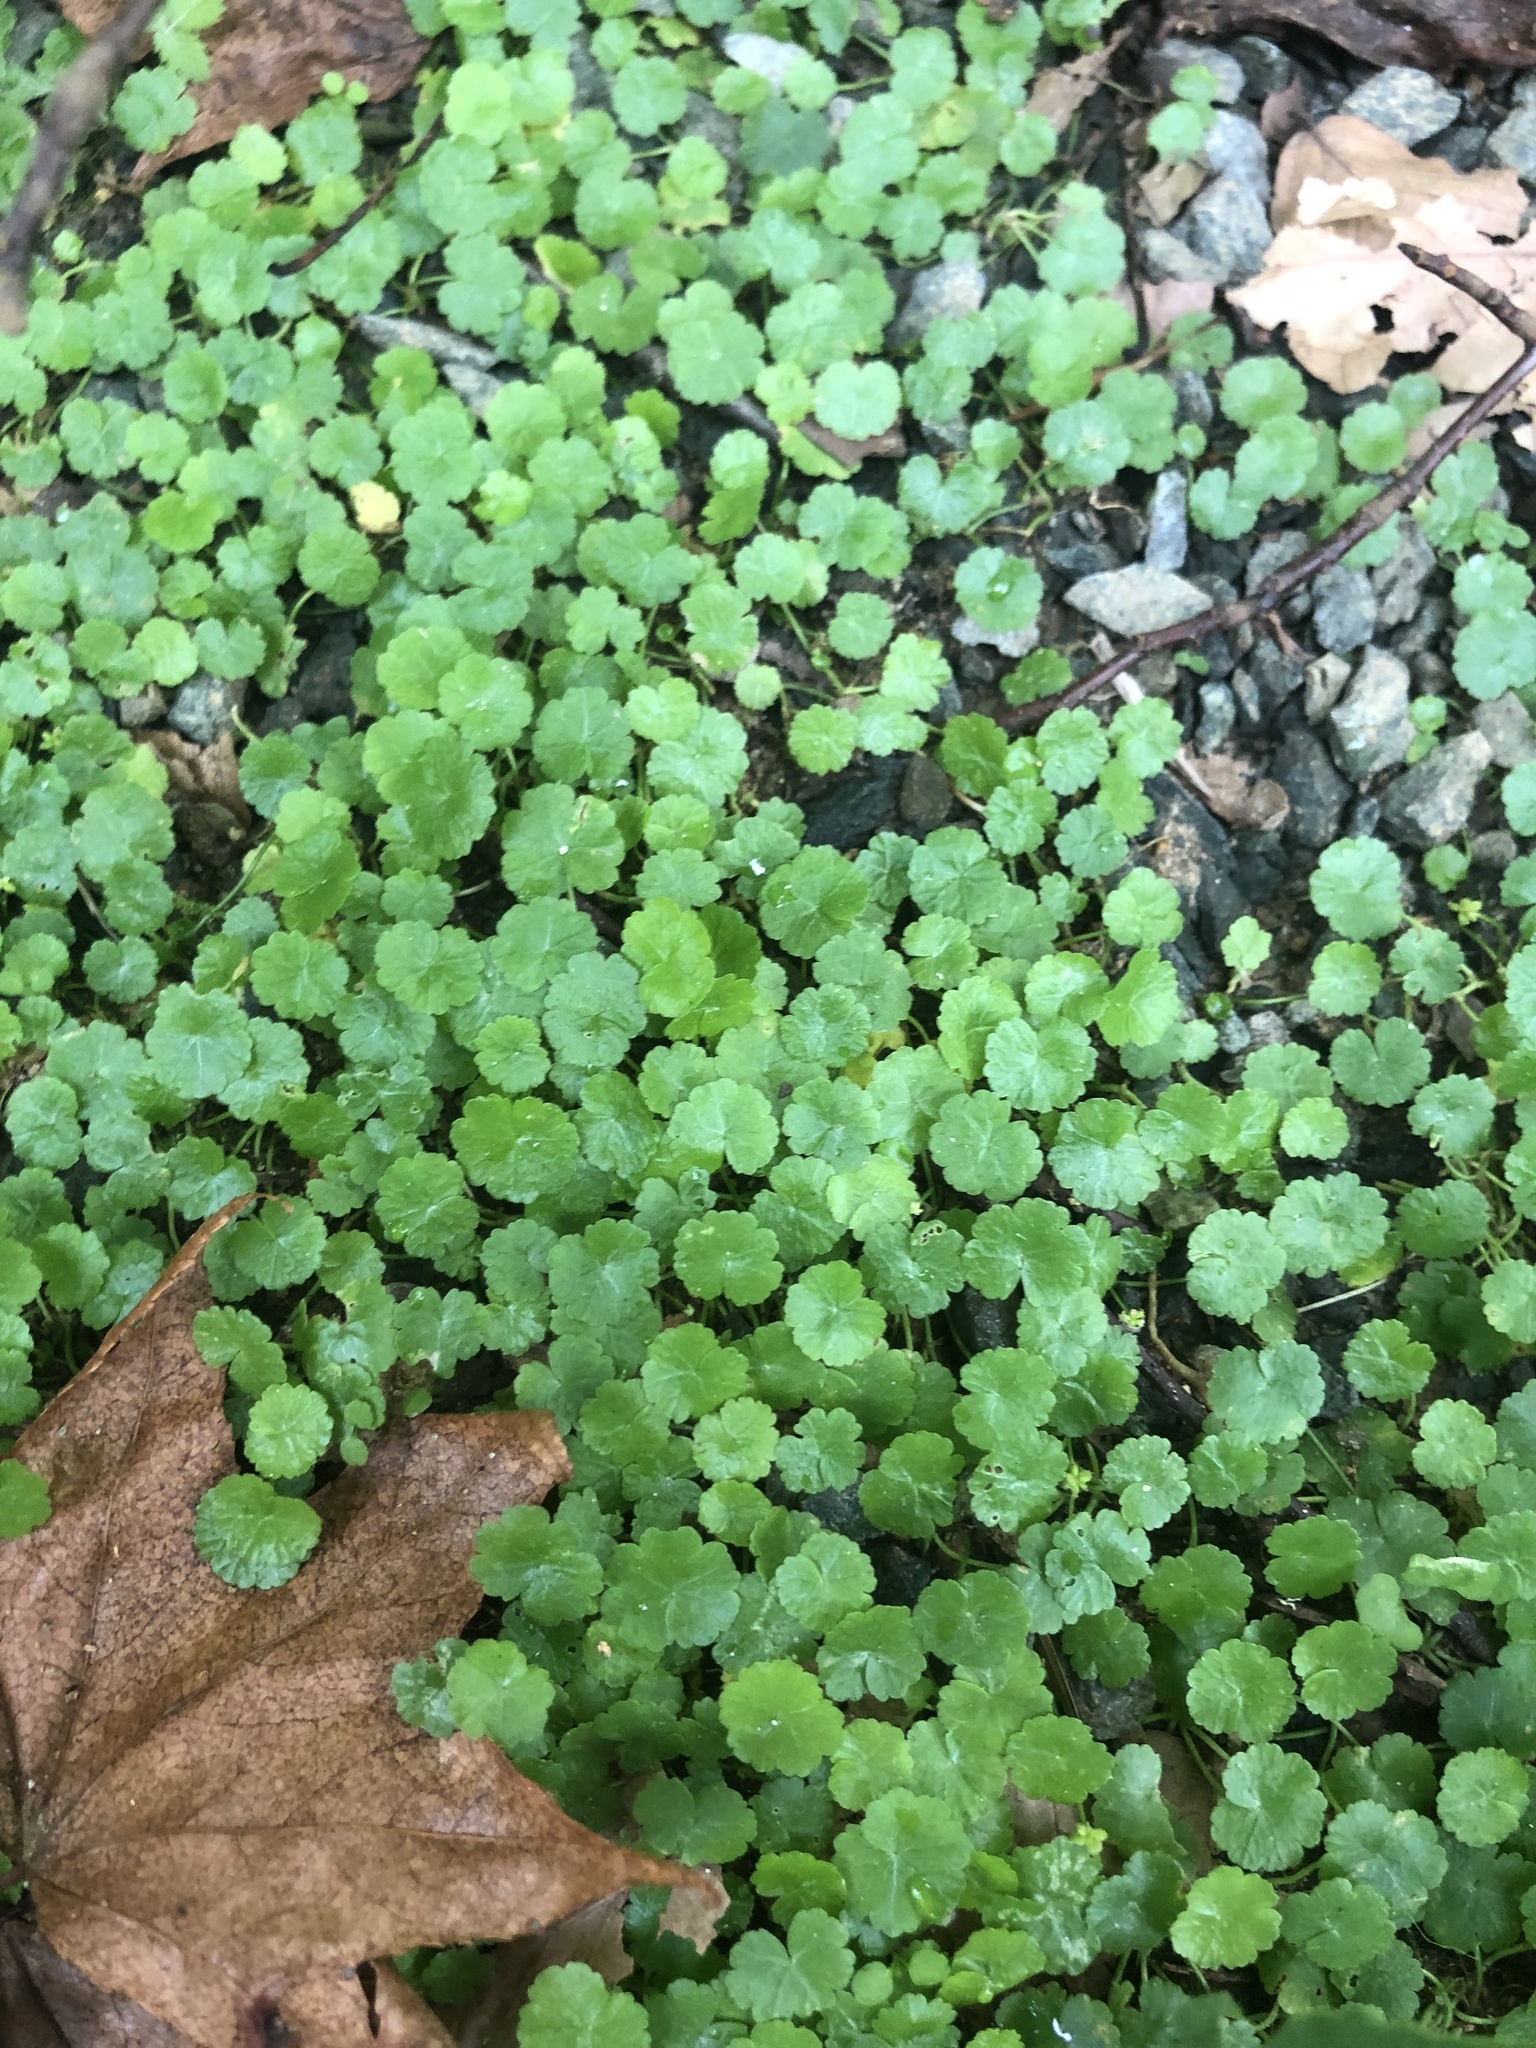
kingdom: Plantae
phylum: Tracheophyta
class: Magnoliopsida
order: Apiales
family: Araliaceae
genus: Hydrocotyle
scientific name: Hydrocotyle sibthorpioides
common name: Lawn marshpennywort
